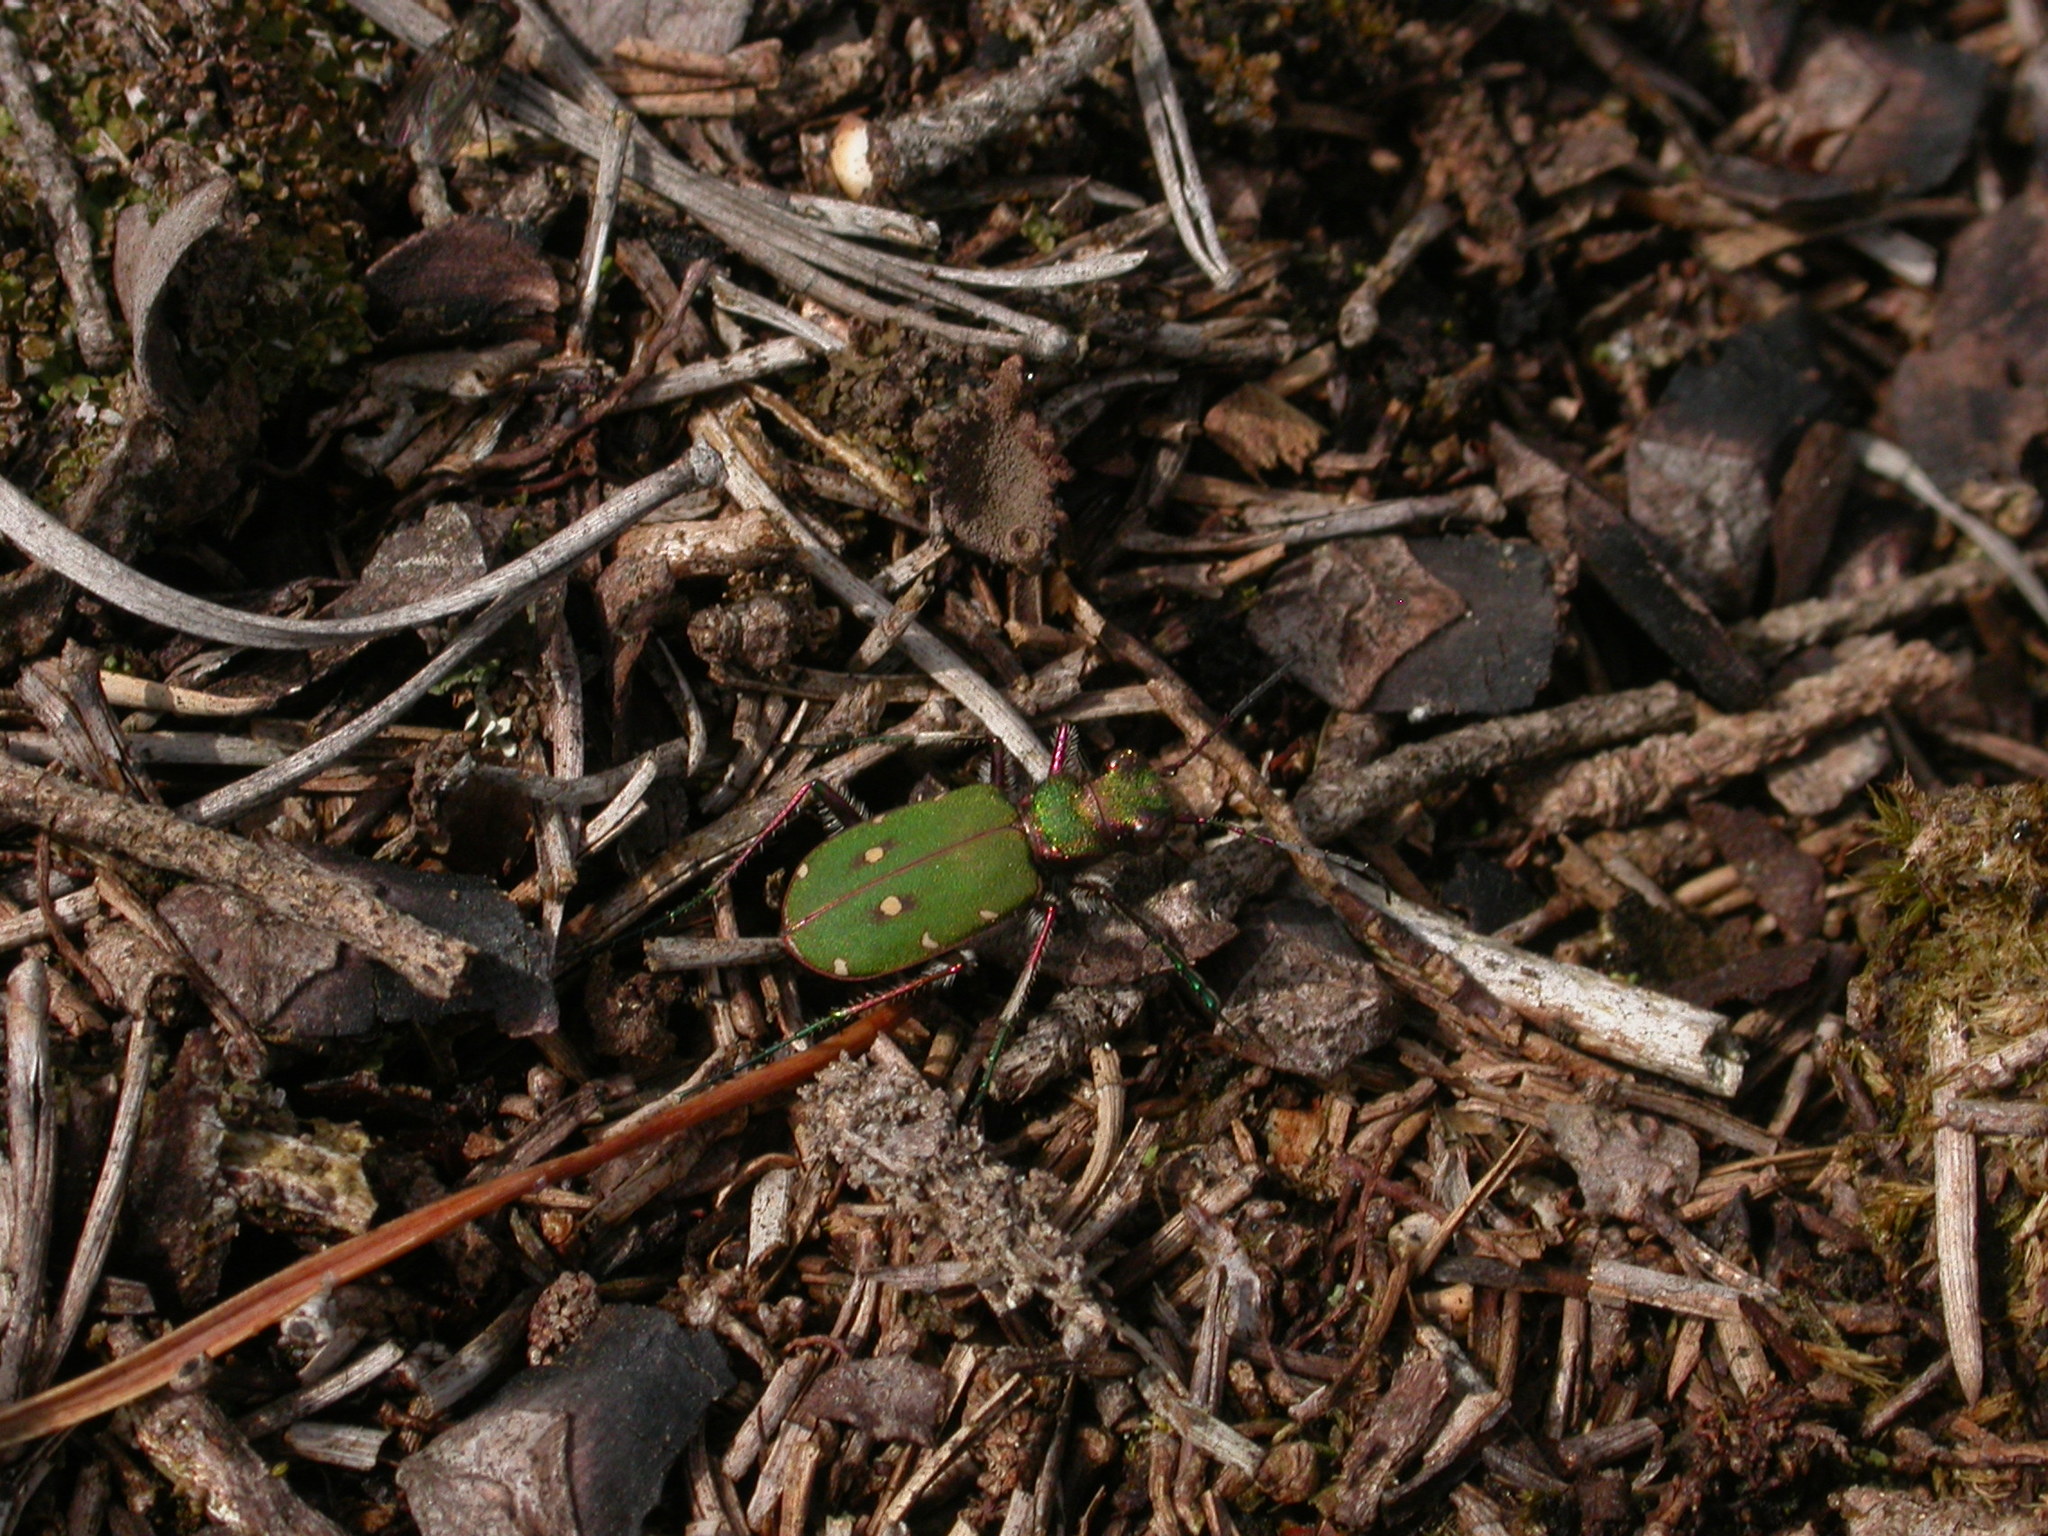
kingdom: Animalia
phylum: Arthropoda
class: Insecta
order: Coleoptera
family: Carabidae
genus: Cicindela
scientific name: Cicindela campestris
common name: Common tiger beetle
